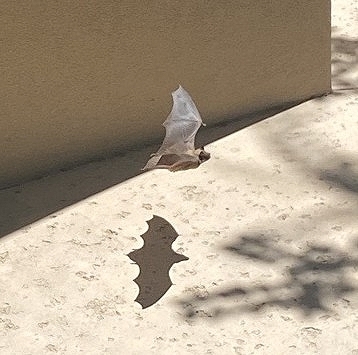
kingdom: Animalia
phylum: Chordata
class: Mammalia
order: Chiroptera
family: Vespertilionidae
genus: Eptesicus
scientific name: Eptesicus fuscus
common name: Big brown bat
